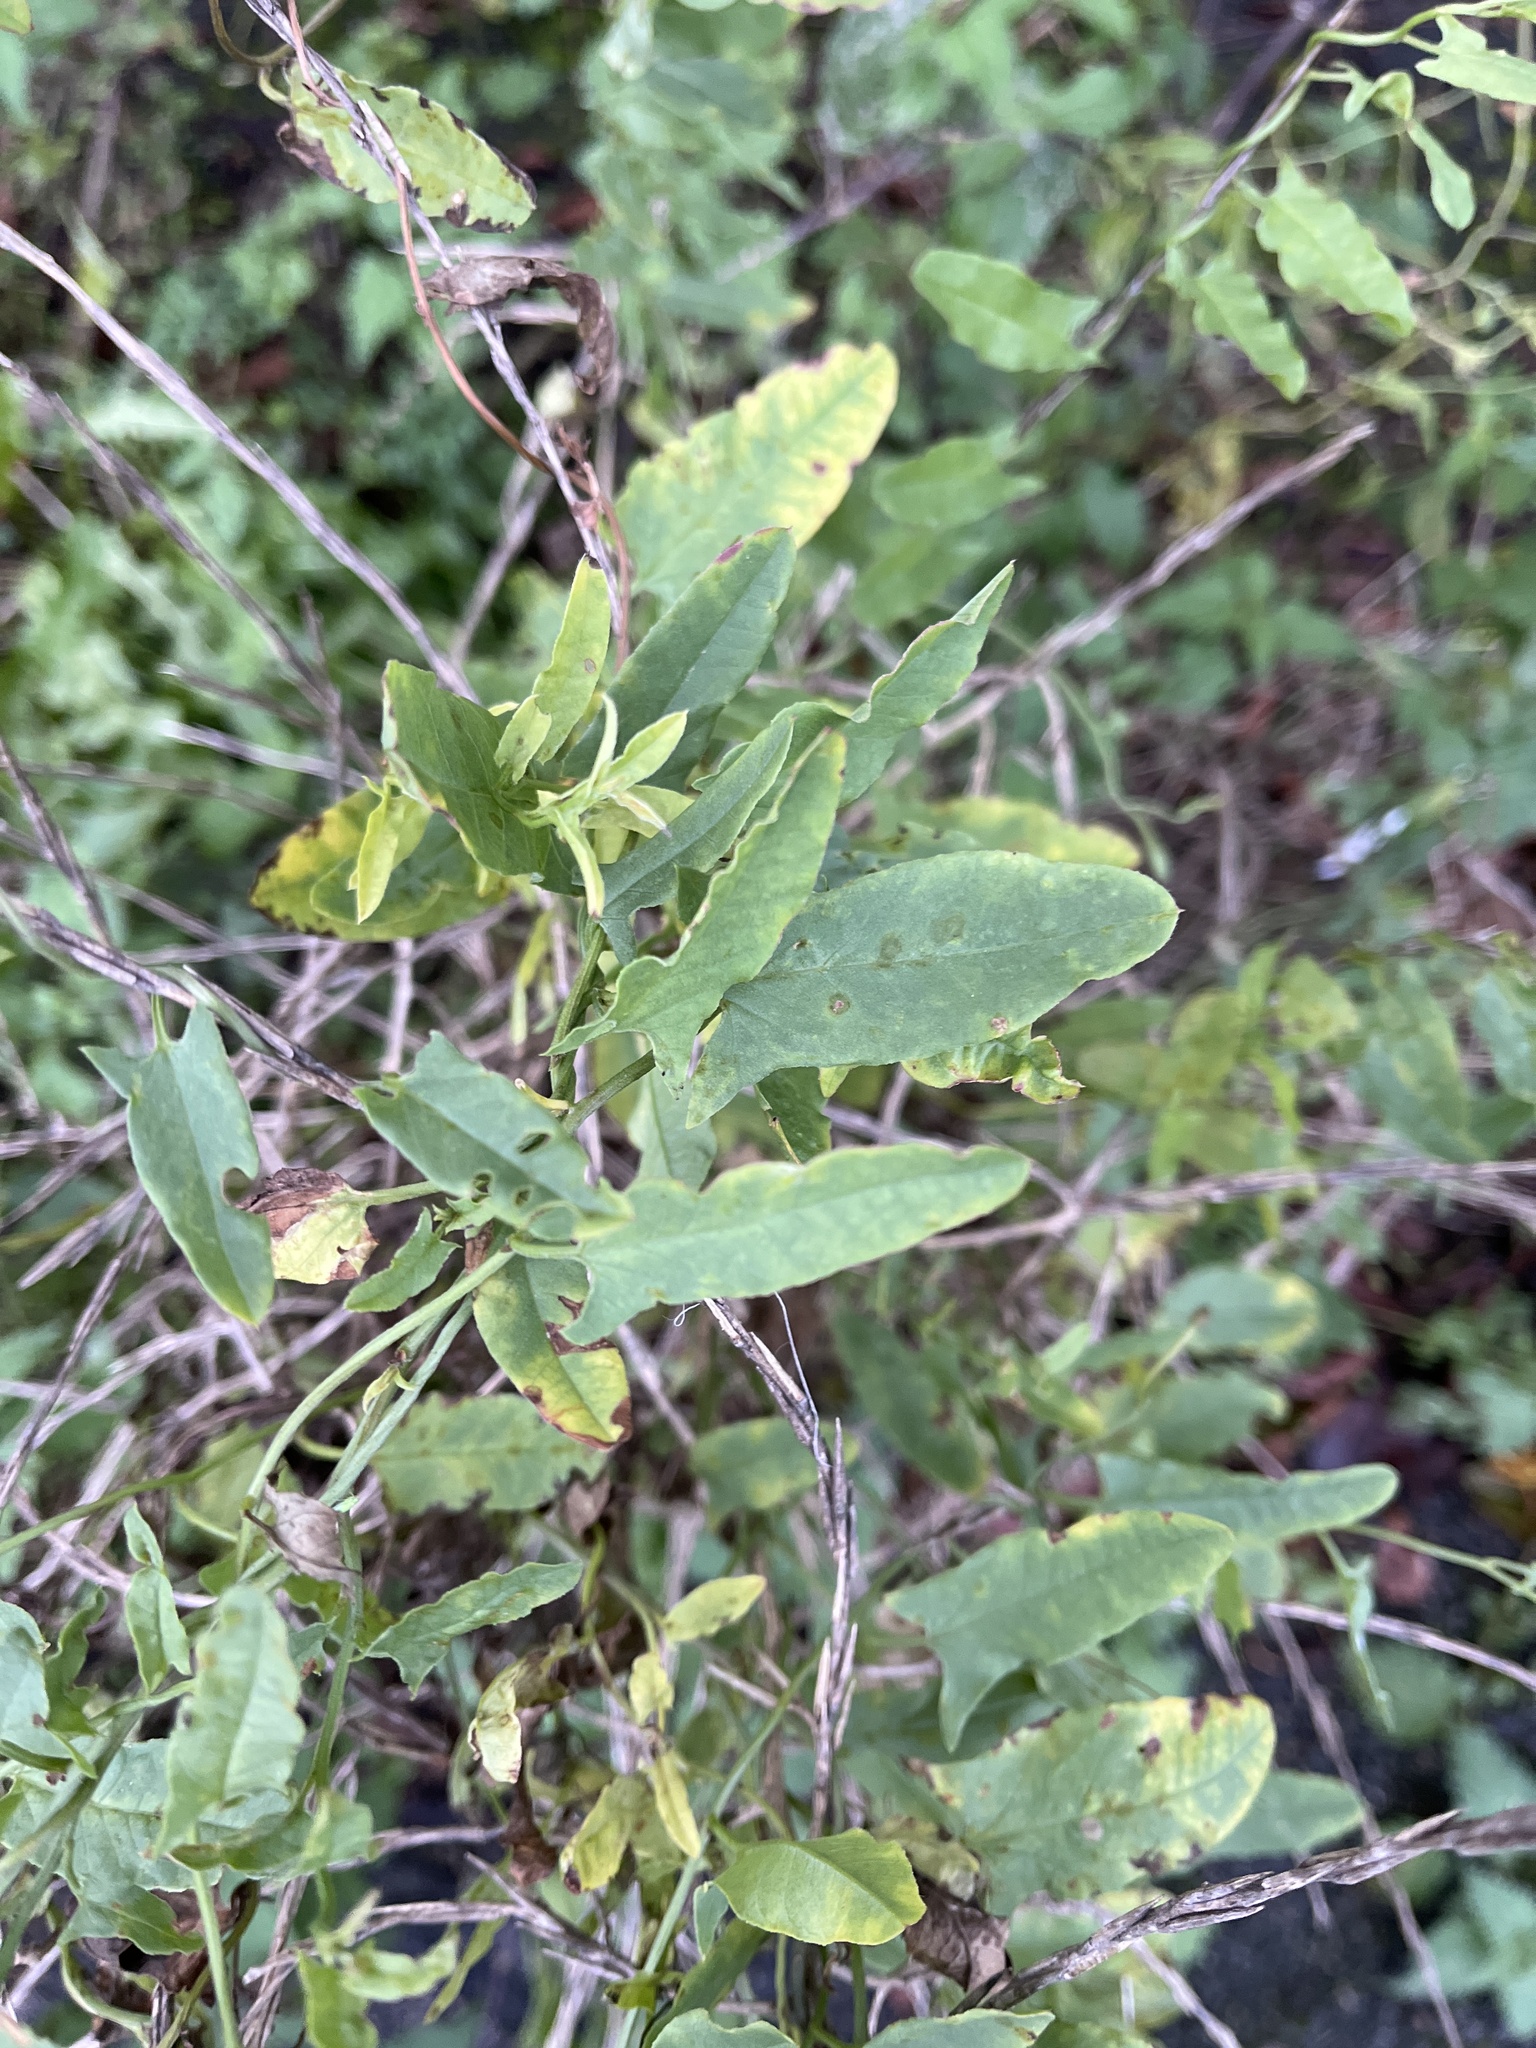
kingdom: Plantae
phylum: Tracheophyta
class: Magnoliopsida
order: Solanales
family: Convolvulaceae
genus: Convolvulus
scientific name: Convolvulus arvensis
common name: Field bindweed
